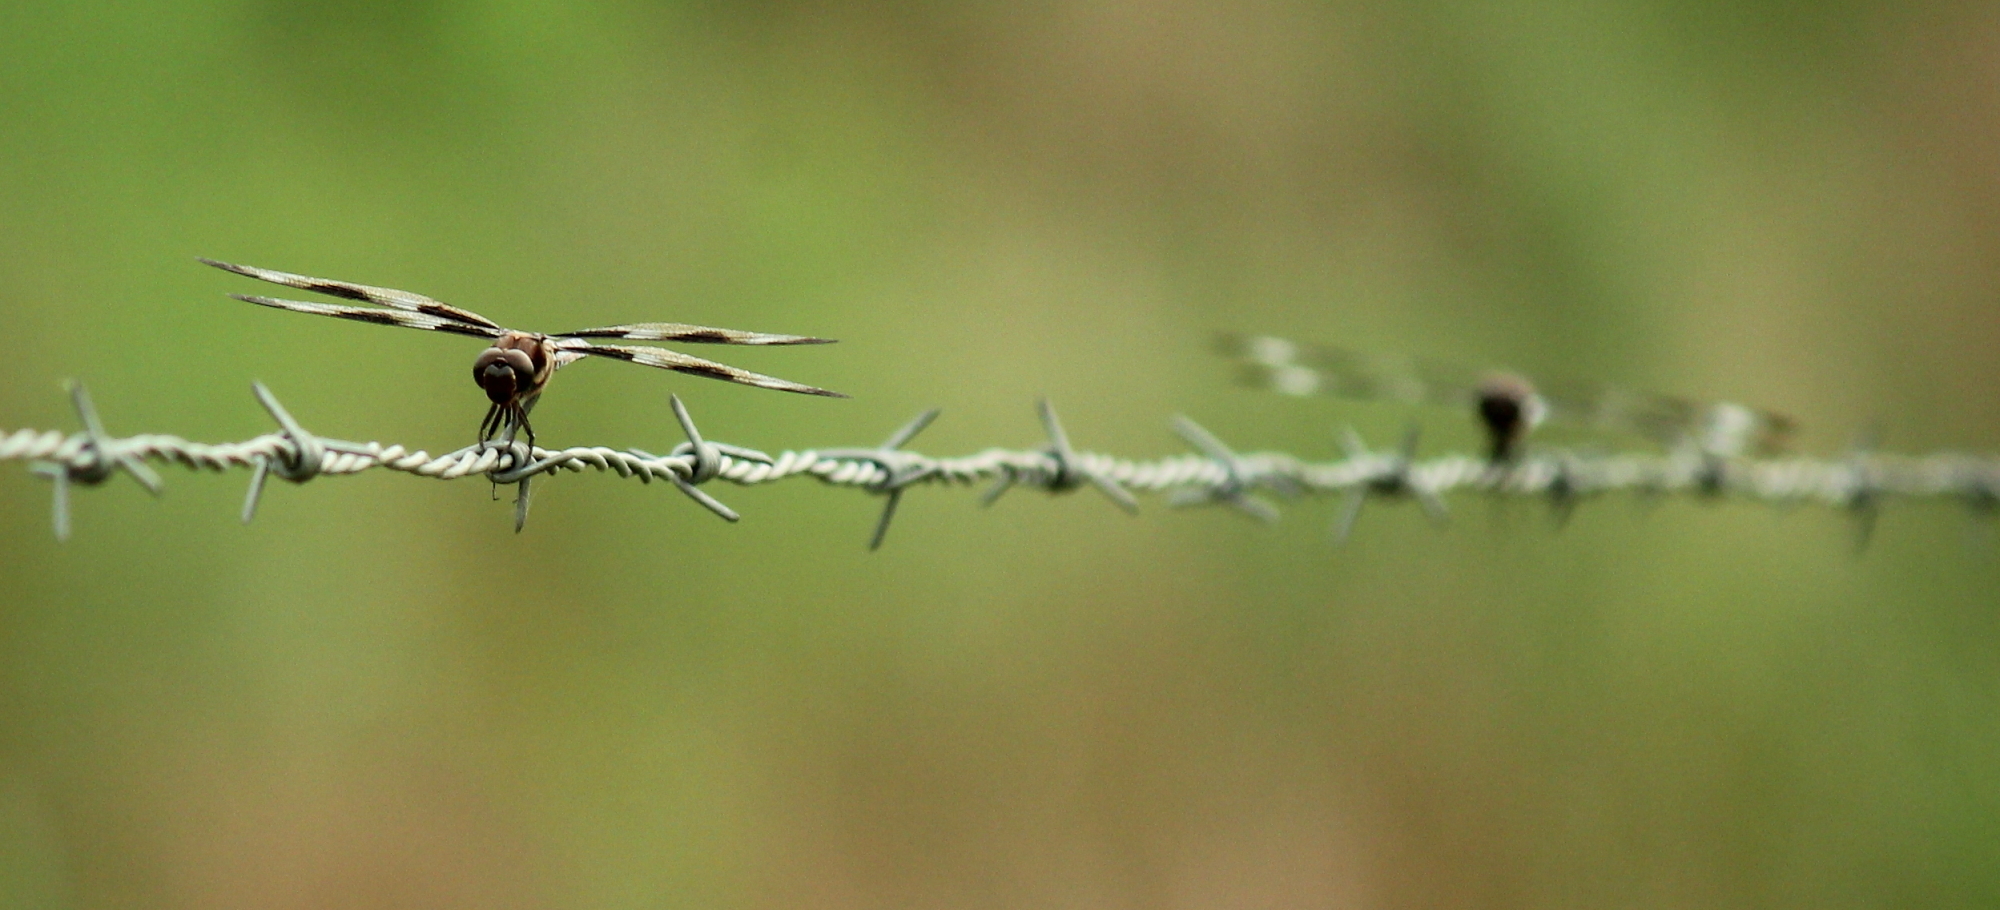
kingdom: Animalia
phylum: Arthropoda
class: Insecta
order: Odonata
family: Libellulidae
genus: Libellula
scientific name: Libellula pulchella
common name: Twelve-spotted skimmer
